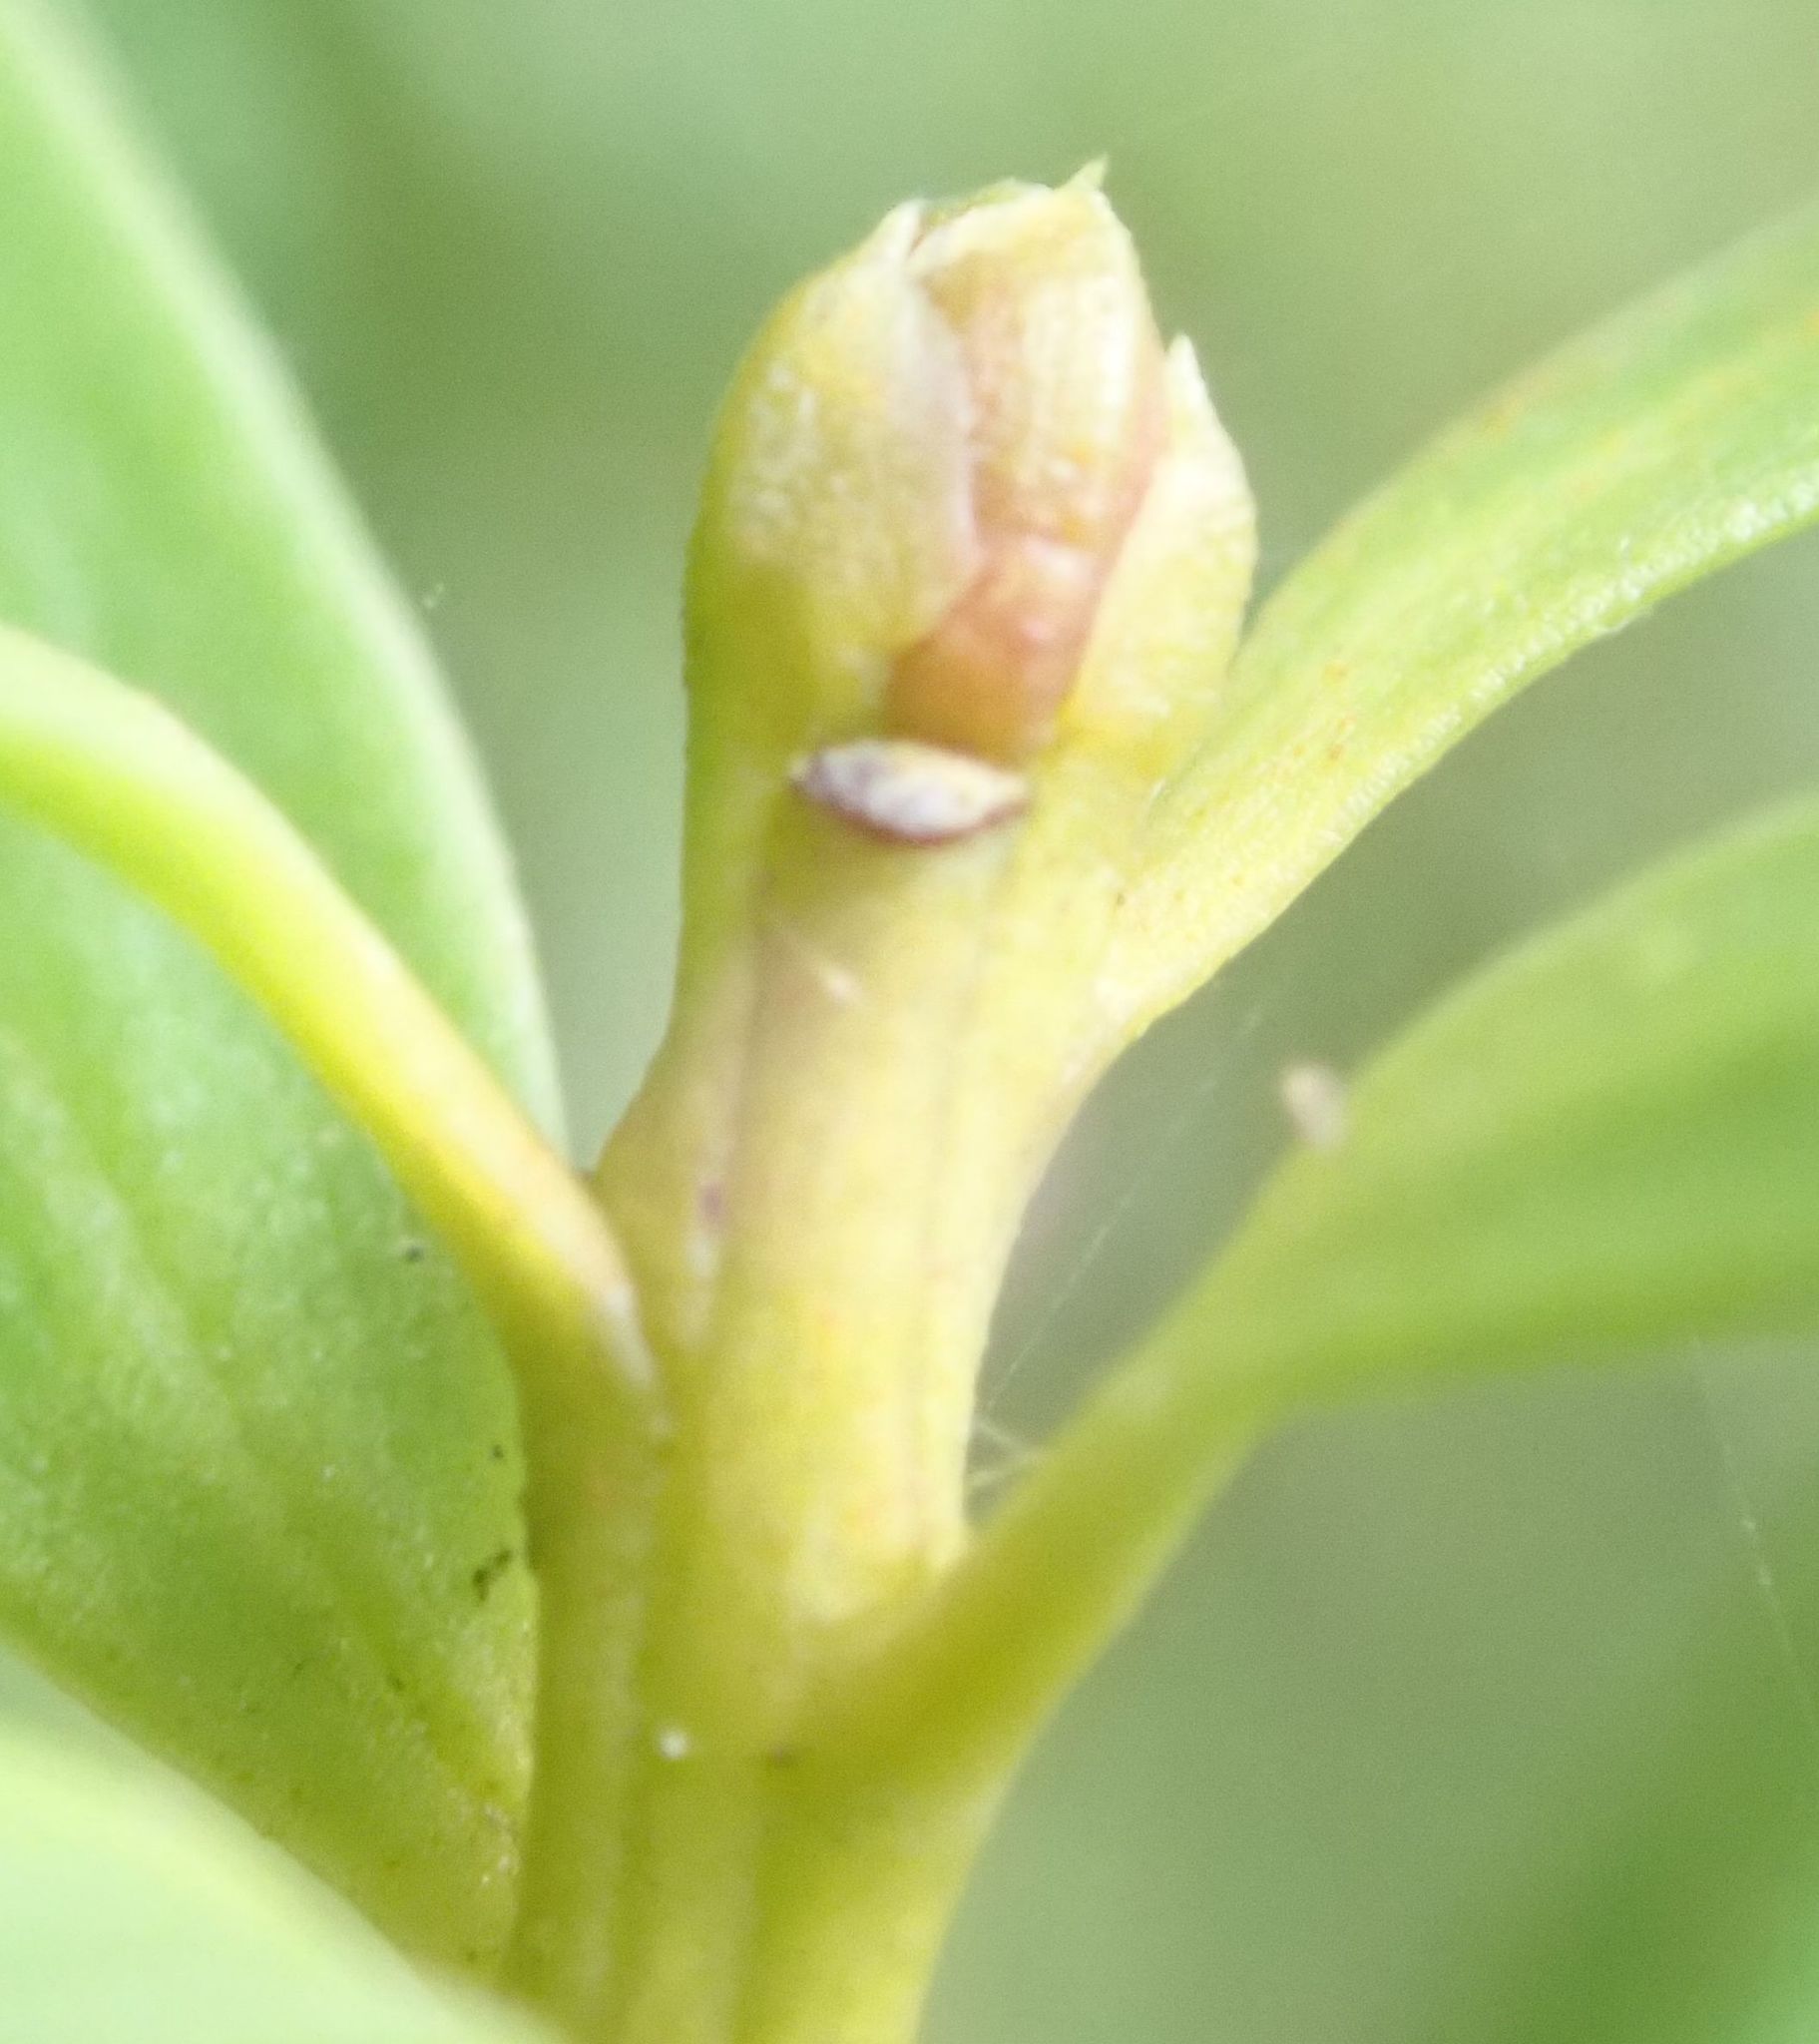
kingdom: Plantae
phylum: Tracheophyta
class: Pinopsida
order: Pinales
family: Podocarpaceae
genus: Podocarpus
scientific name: Podocarpus laetus
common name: Hall's totara
